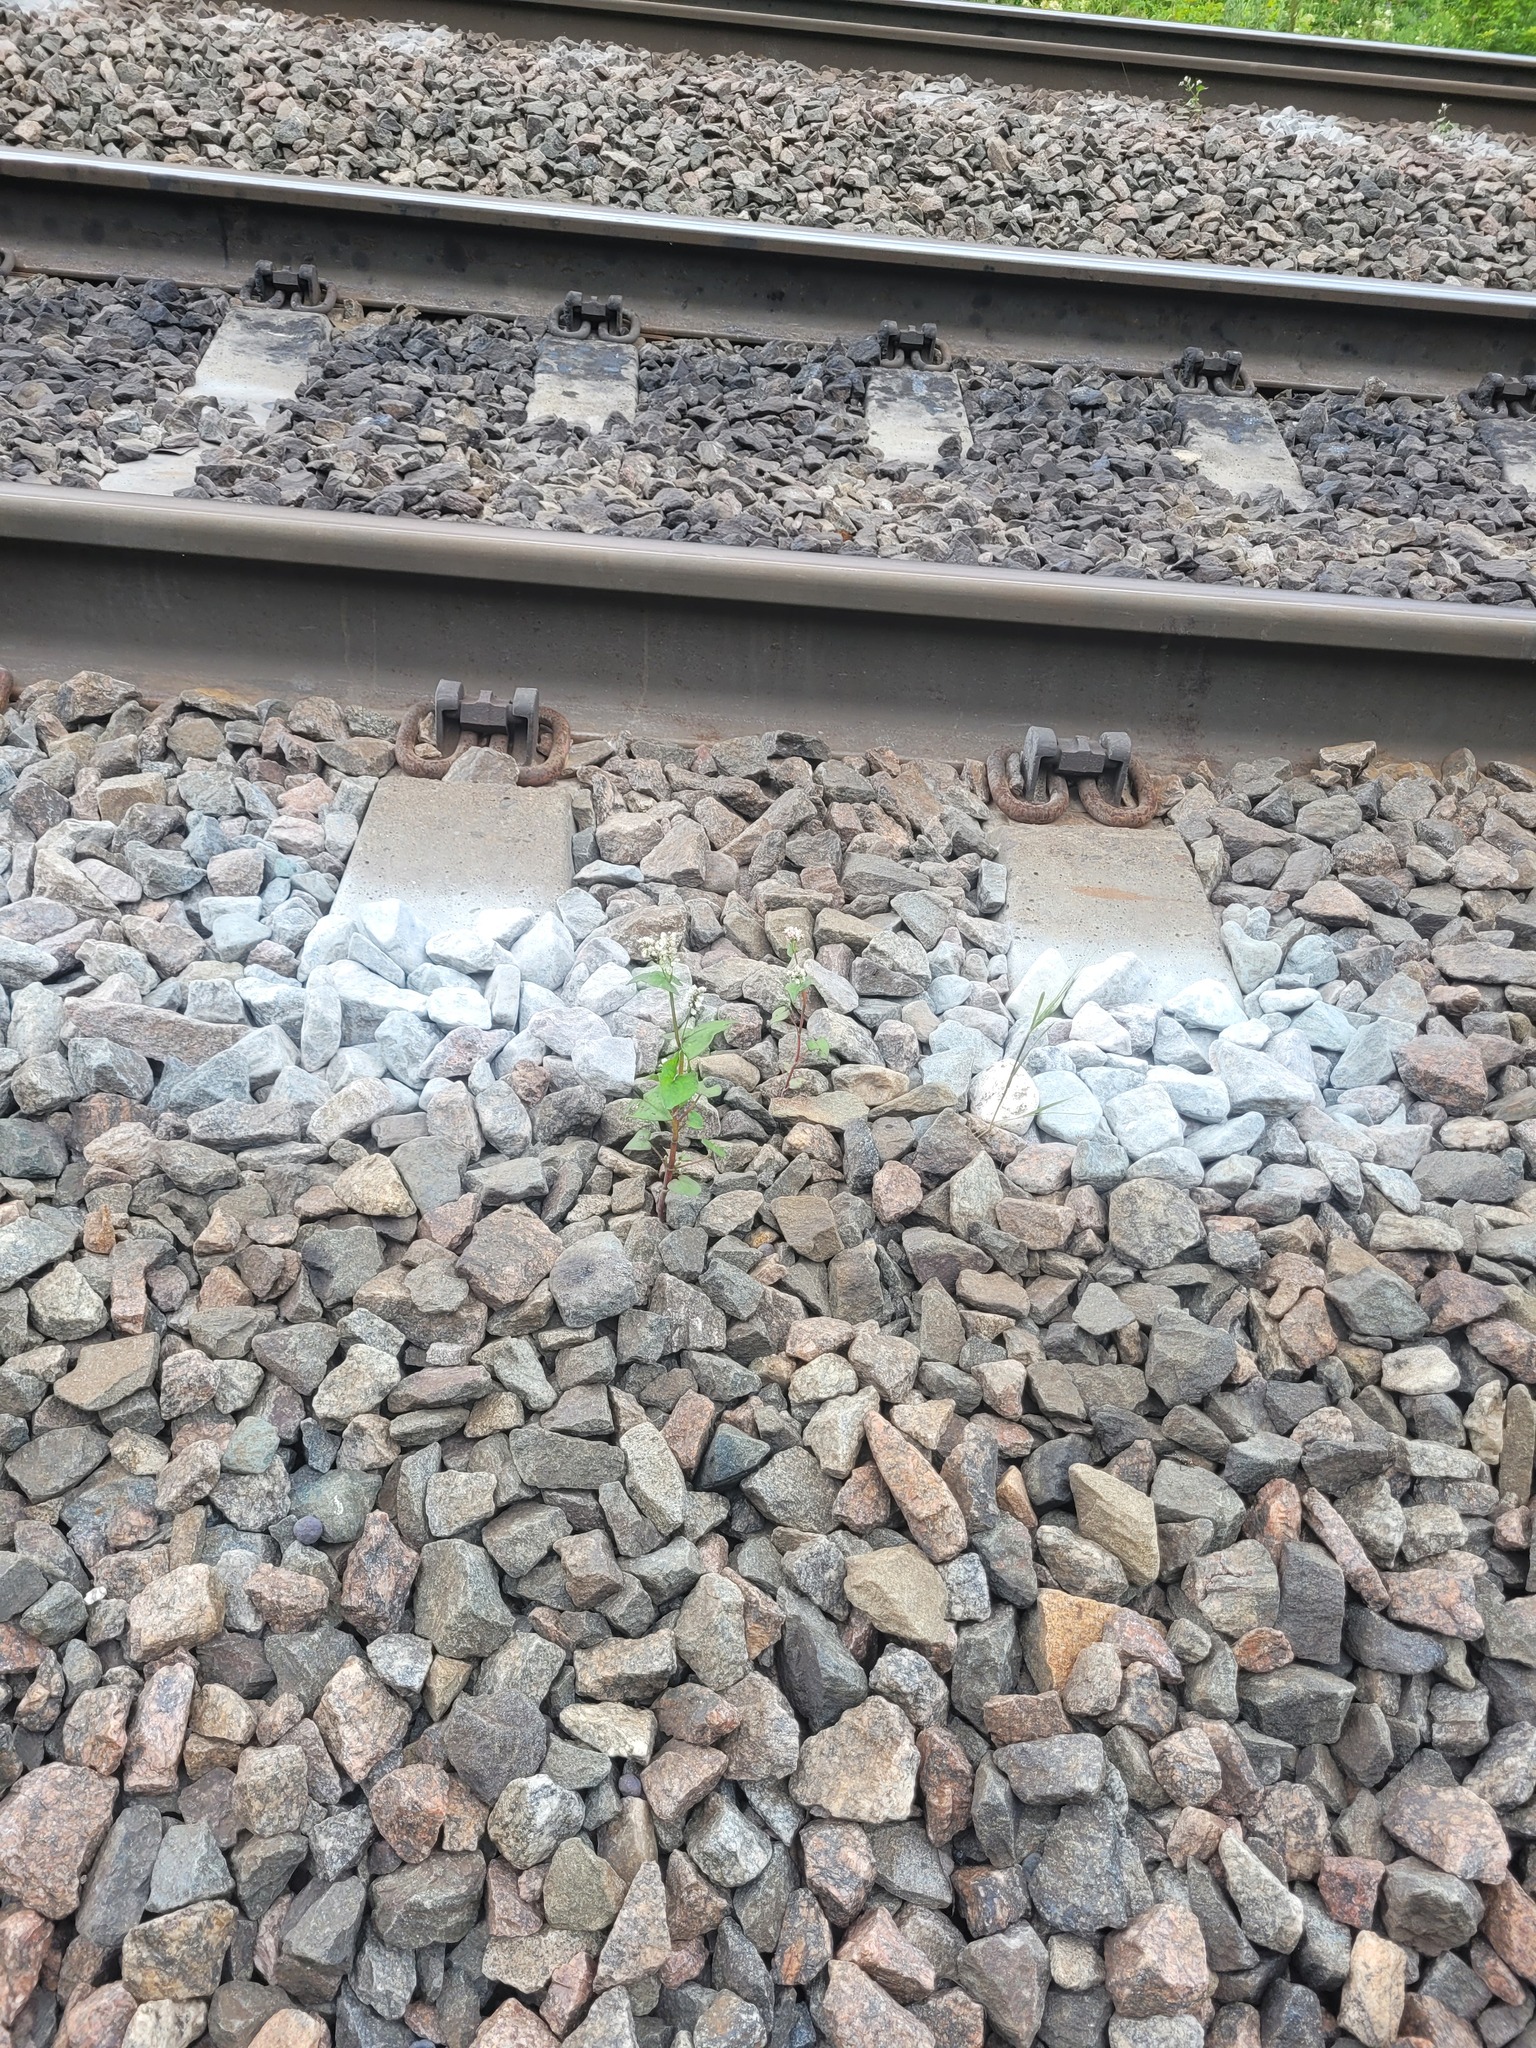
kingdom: Plantae
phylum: Tracheophyta
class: Magnoliopsida
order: Caryophyllales
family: Polygonaceae
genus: Fagopyrum
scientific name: Fagopyrum esculentum
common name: Buckwheat
